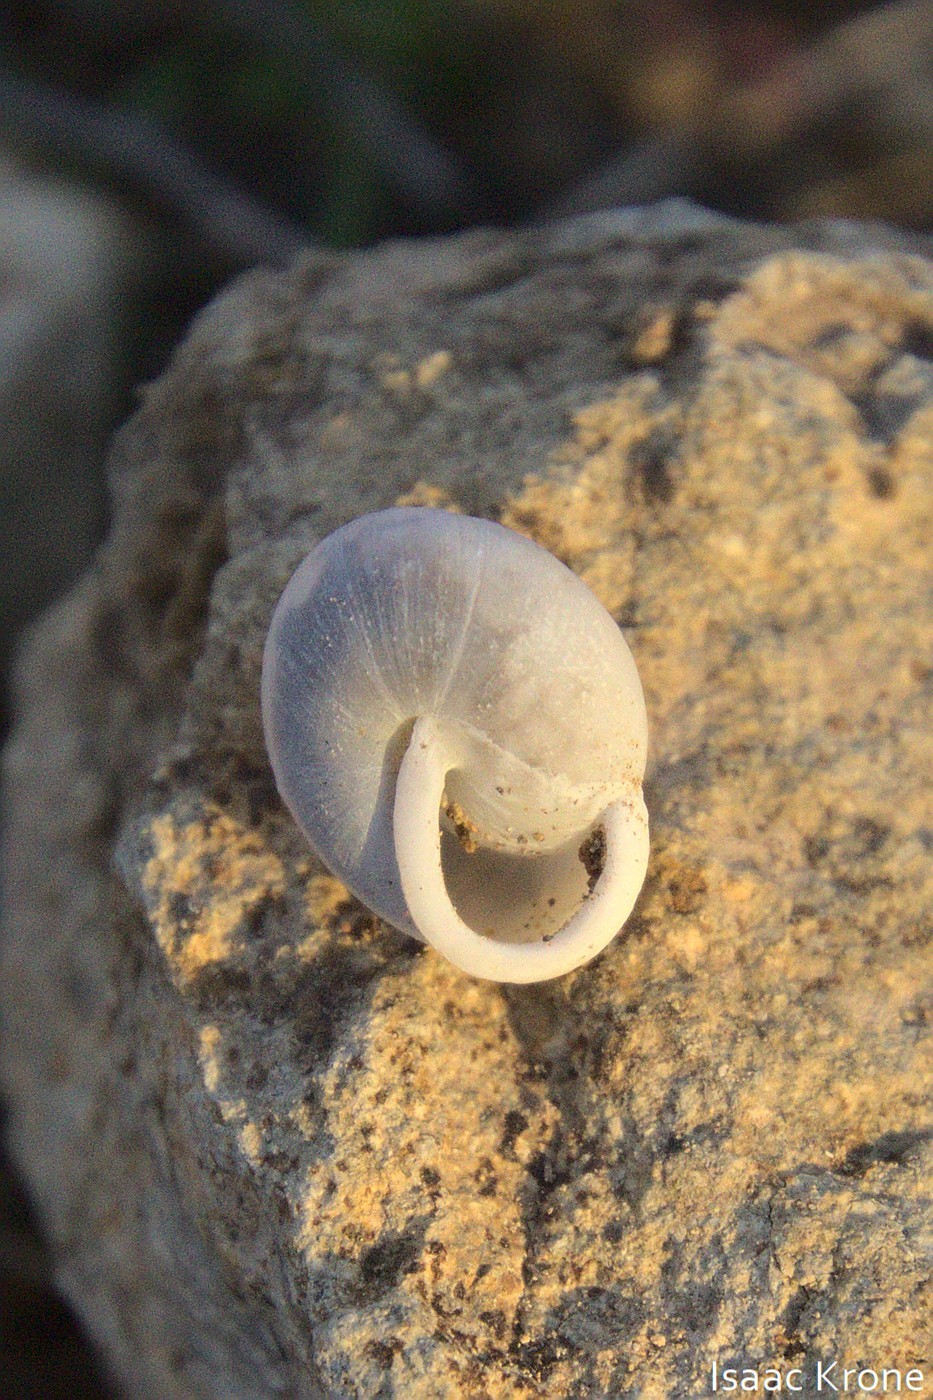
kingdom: Animalia
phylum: Mollusca
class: Gastropoda
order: Stylommatophora
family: Xanthonychidae
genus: Micrarionta
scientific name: Micrarionta beatula
